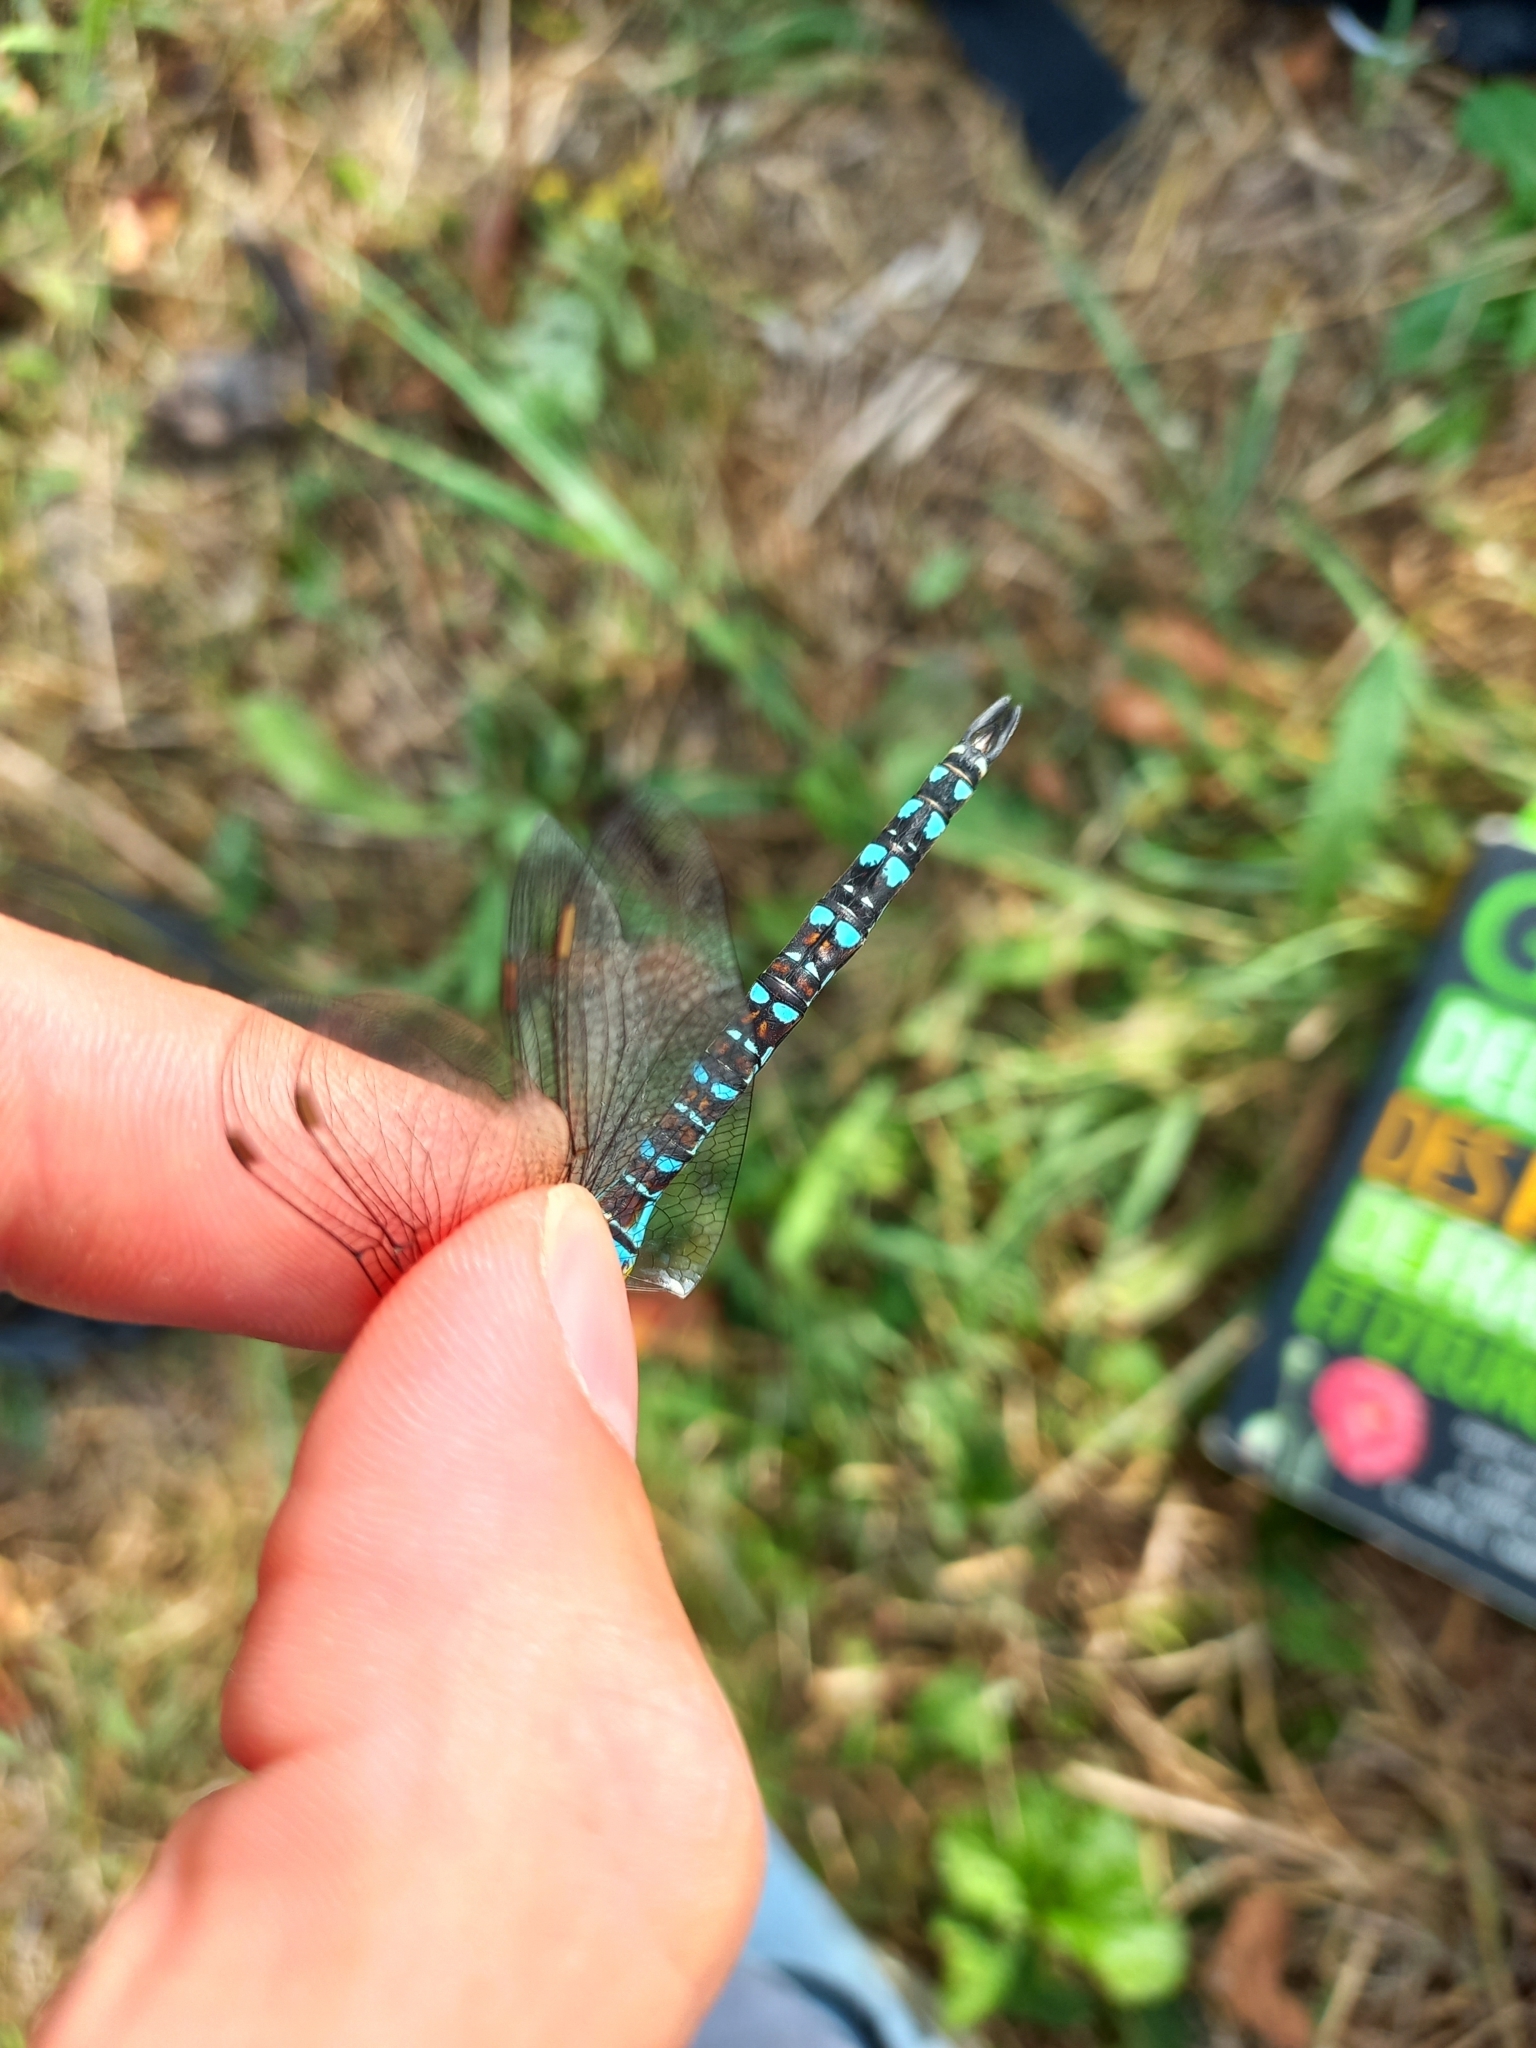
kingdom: Animalia
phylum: Arthropoda
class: Insecta
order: Odonata
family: Aeshnidae
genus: Aeshna
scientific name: Aeshna mixta
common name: Migrant hawker
